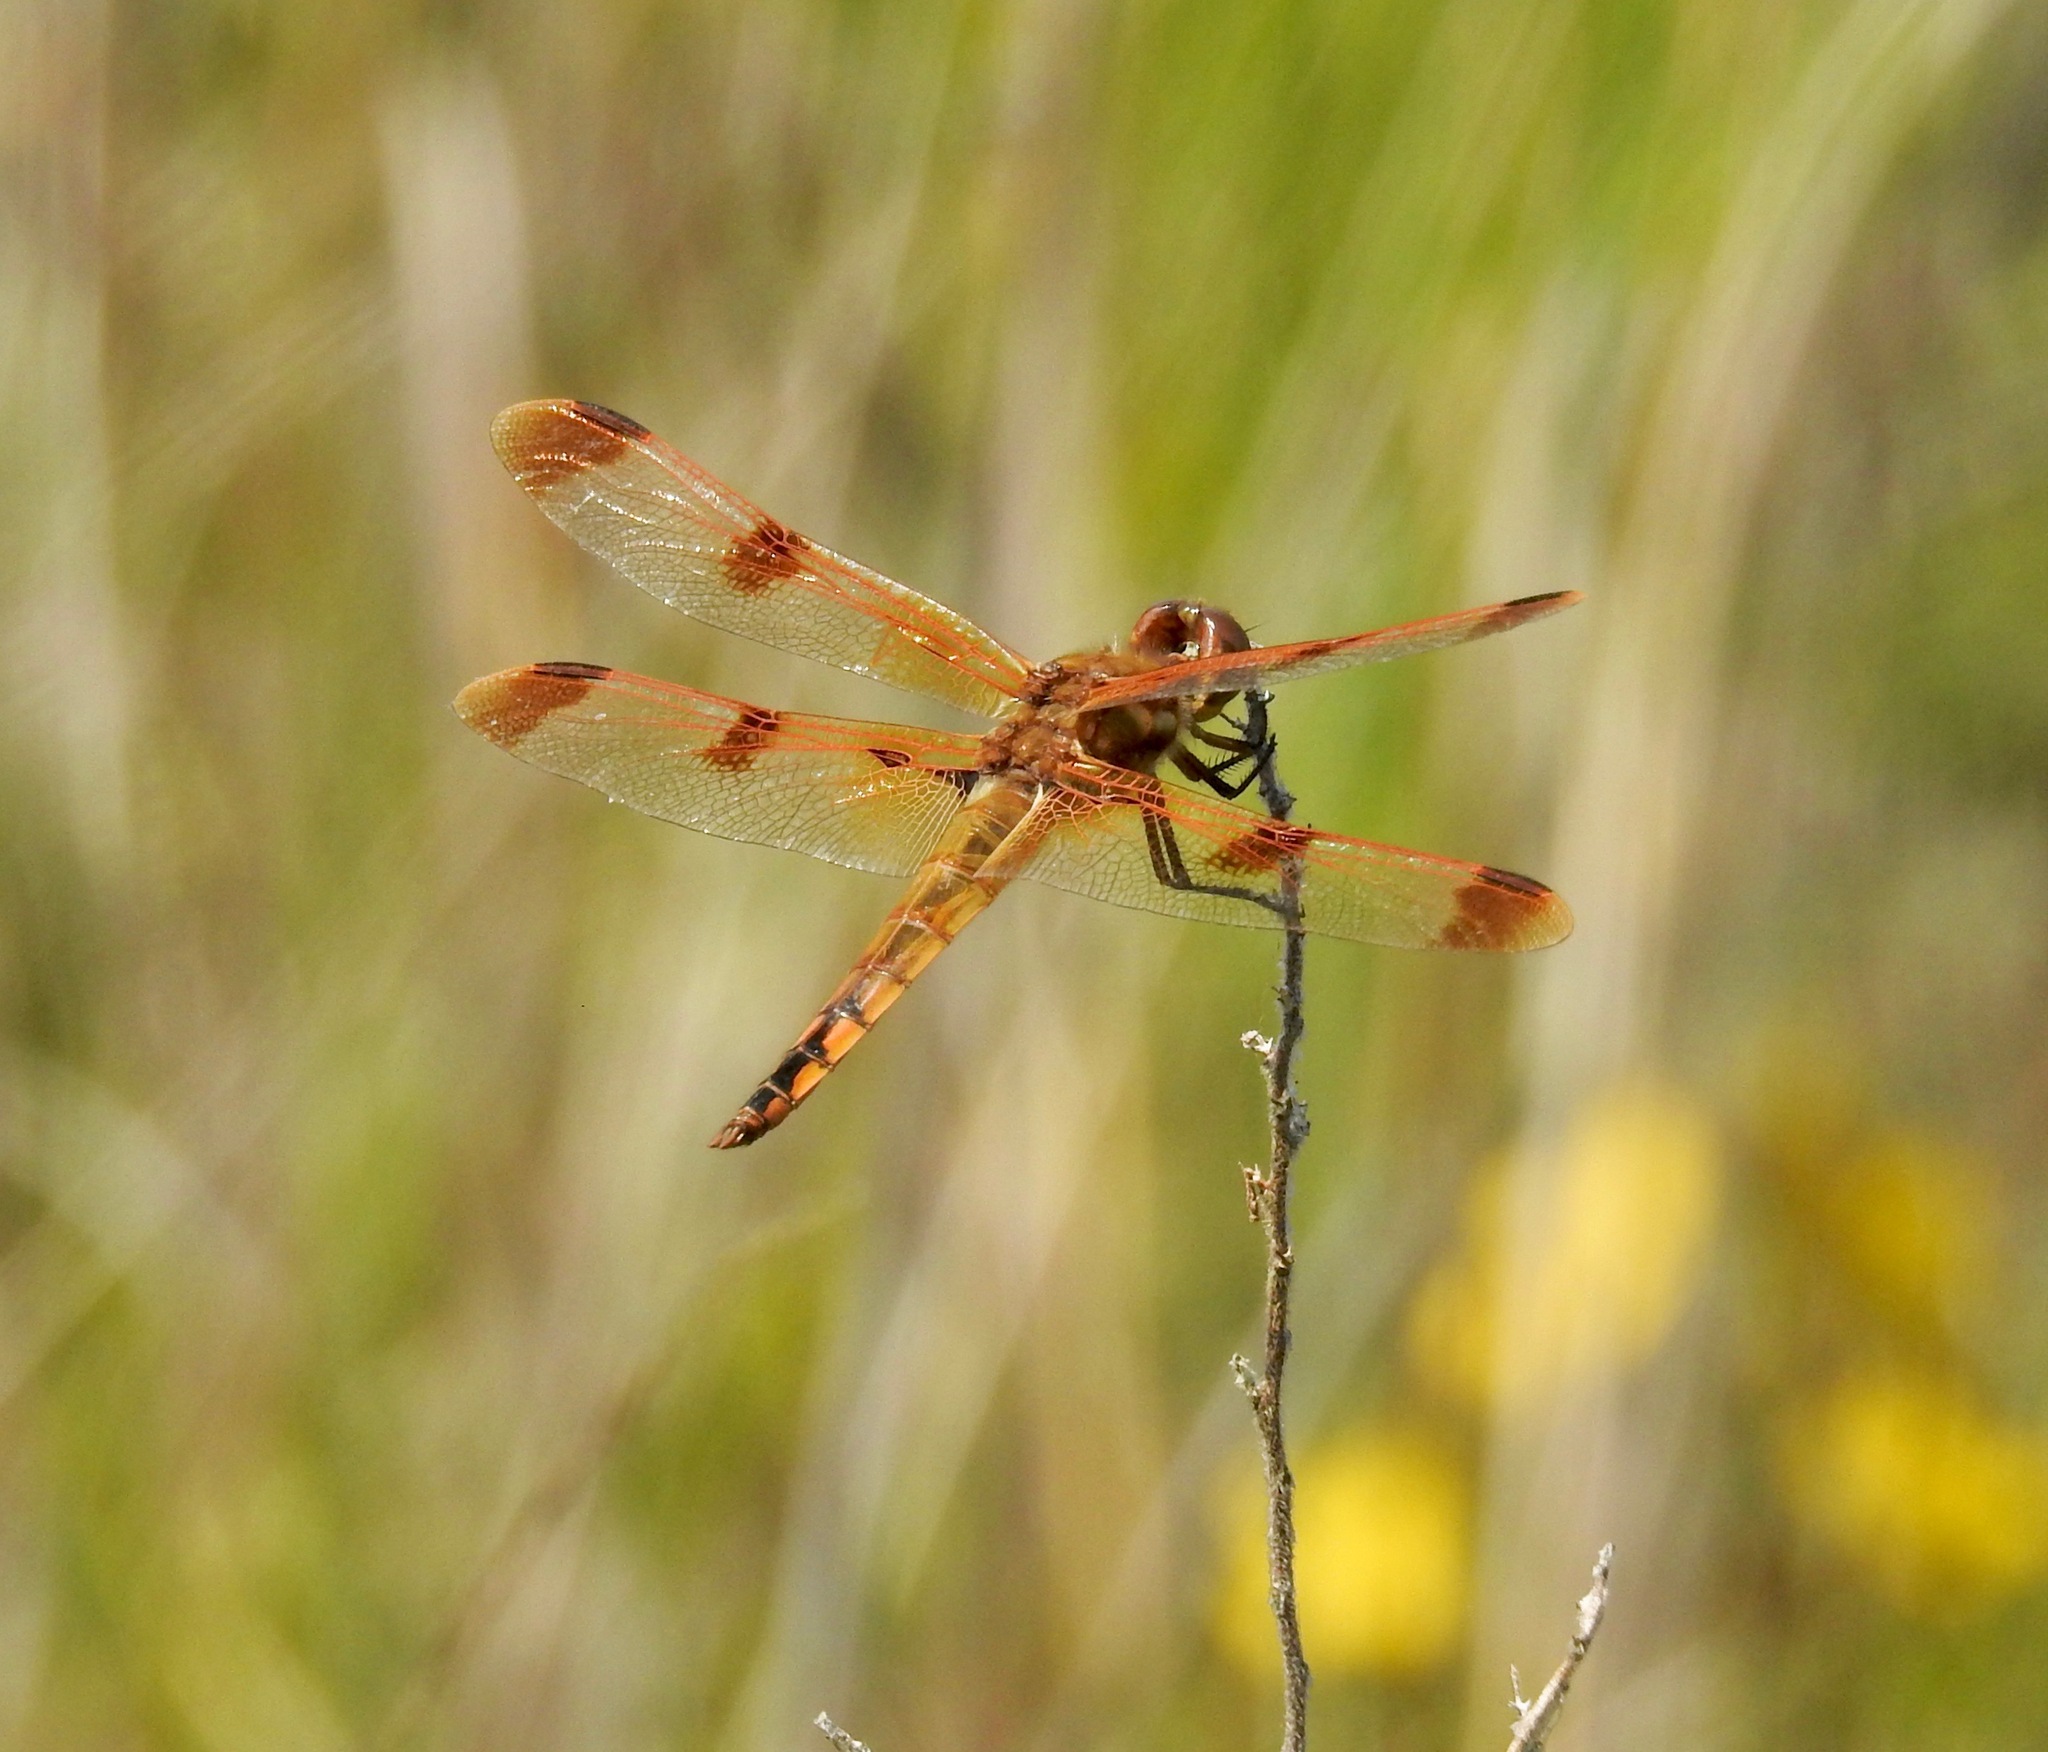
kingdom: Animalia
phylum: Arthropoda
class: Insecta
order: Odonata
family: Libellulidae
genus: Libellula
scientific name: Libellula semifasciata
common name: Painted skimmer
